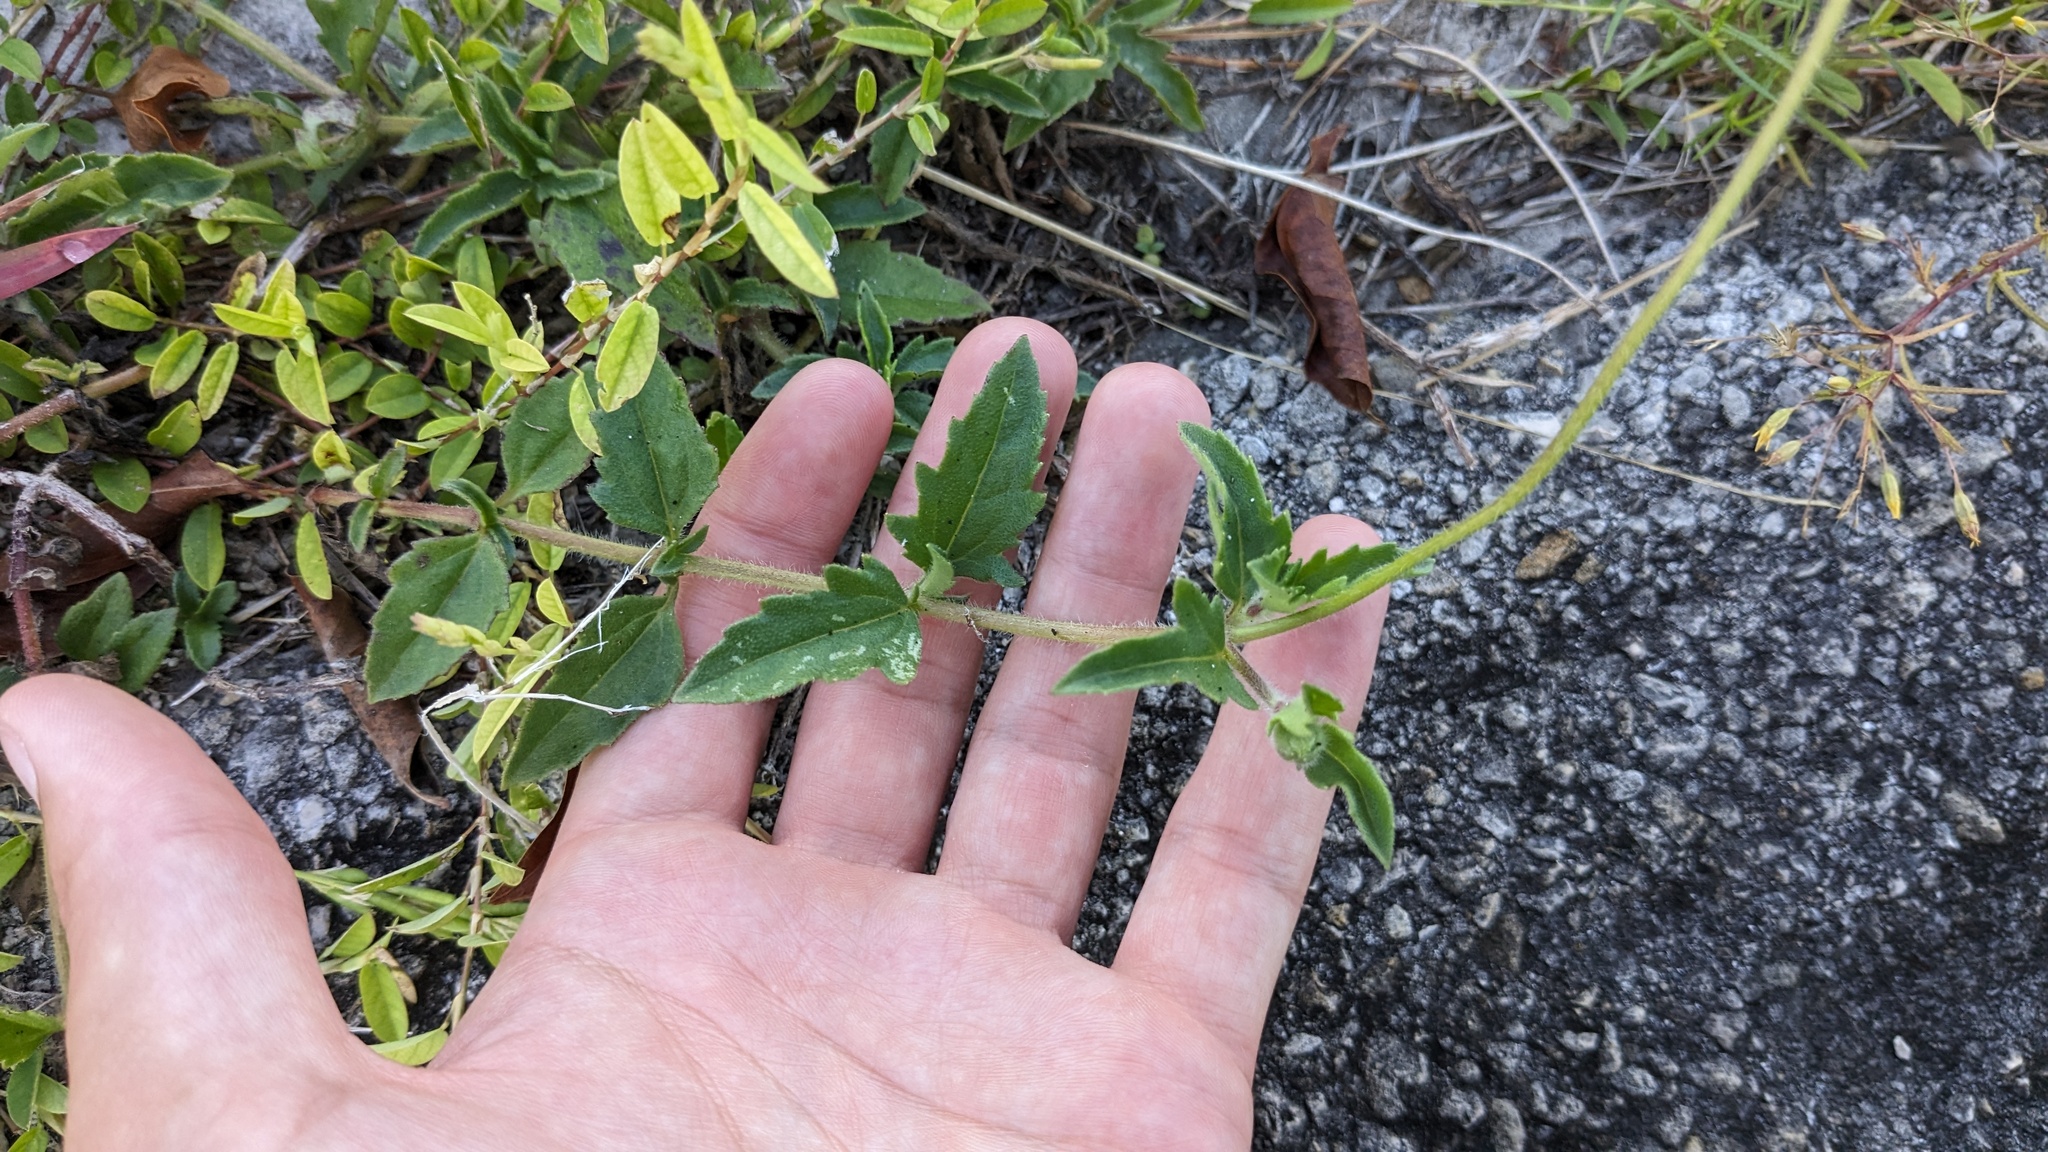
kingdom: Plantae
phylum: Tracheophyta
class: Magnoliopsida
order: Asterales
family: Asteraceae
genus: Tridax
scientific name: Tridax procumbens
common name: Coatbuttons
